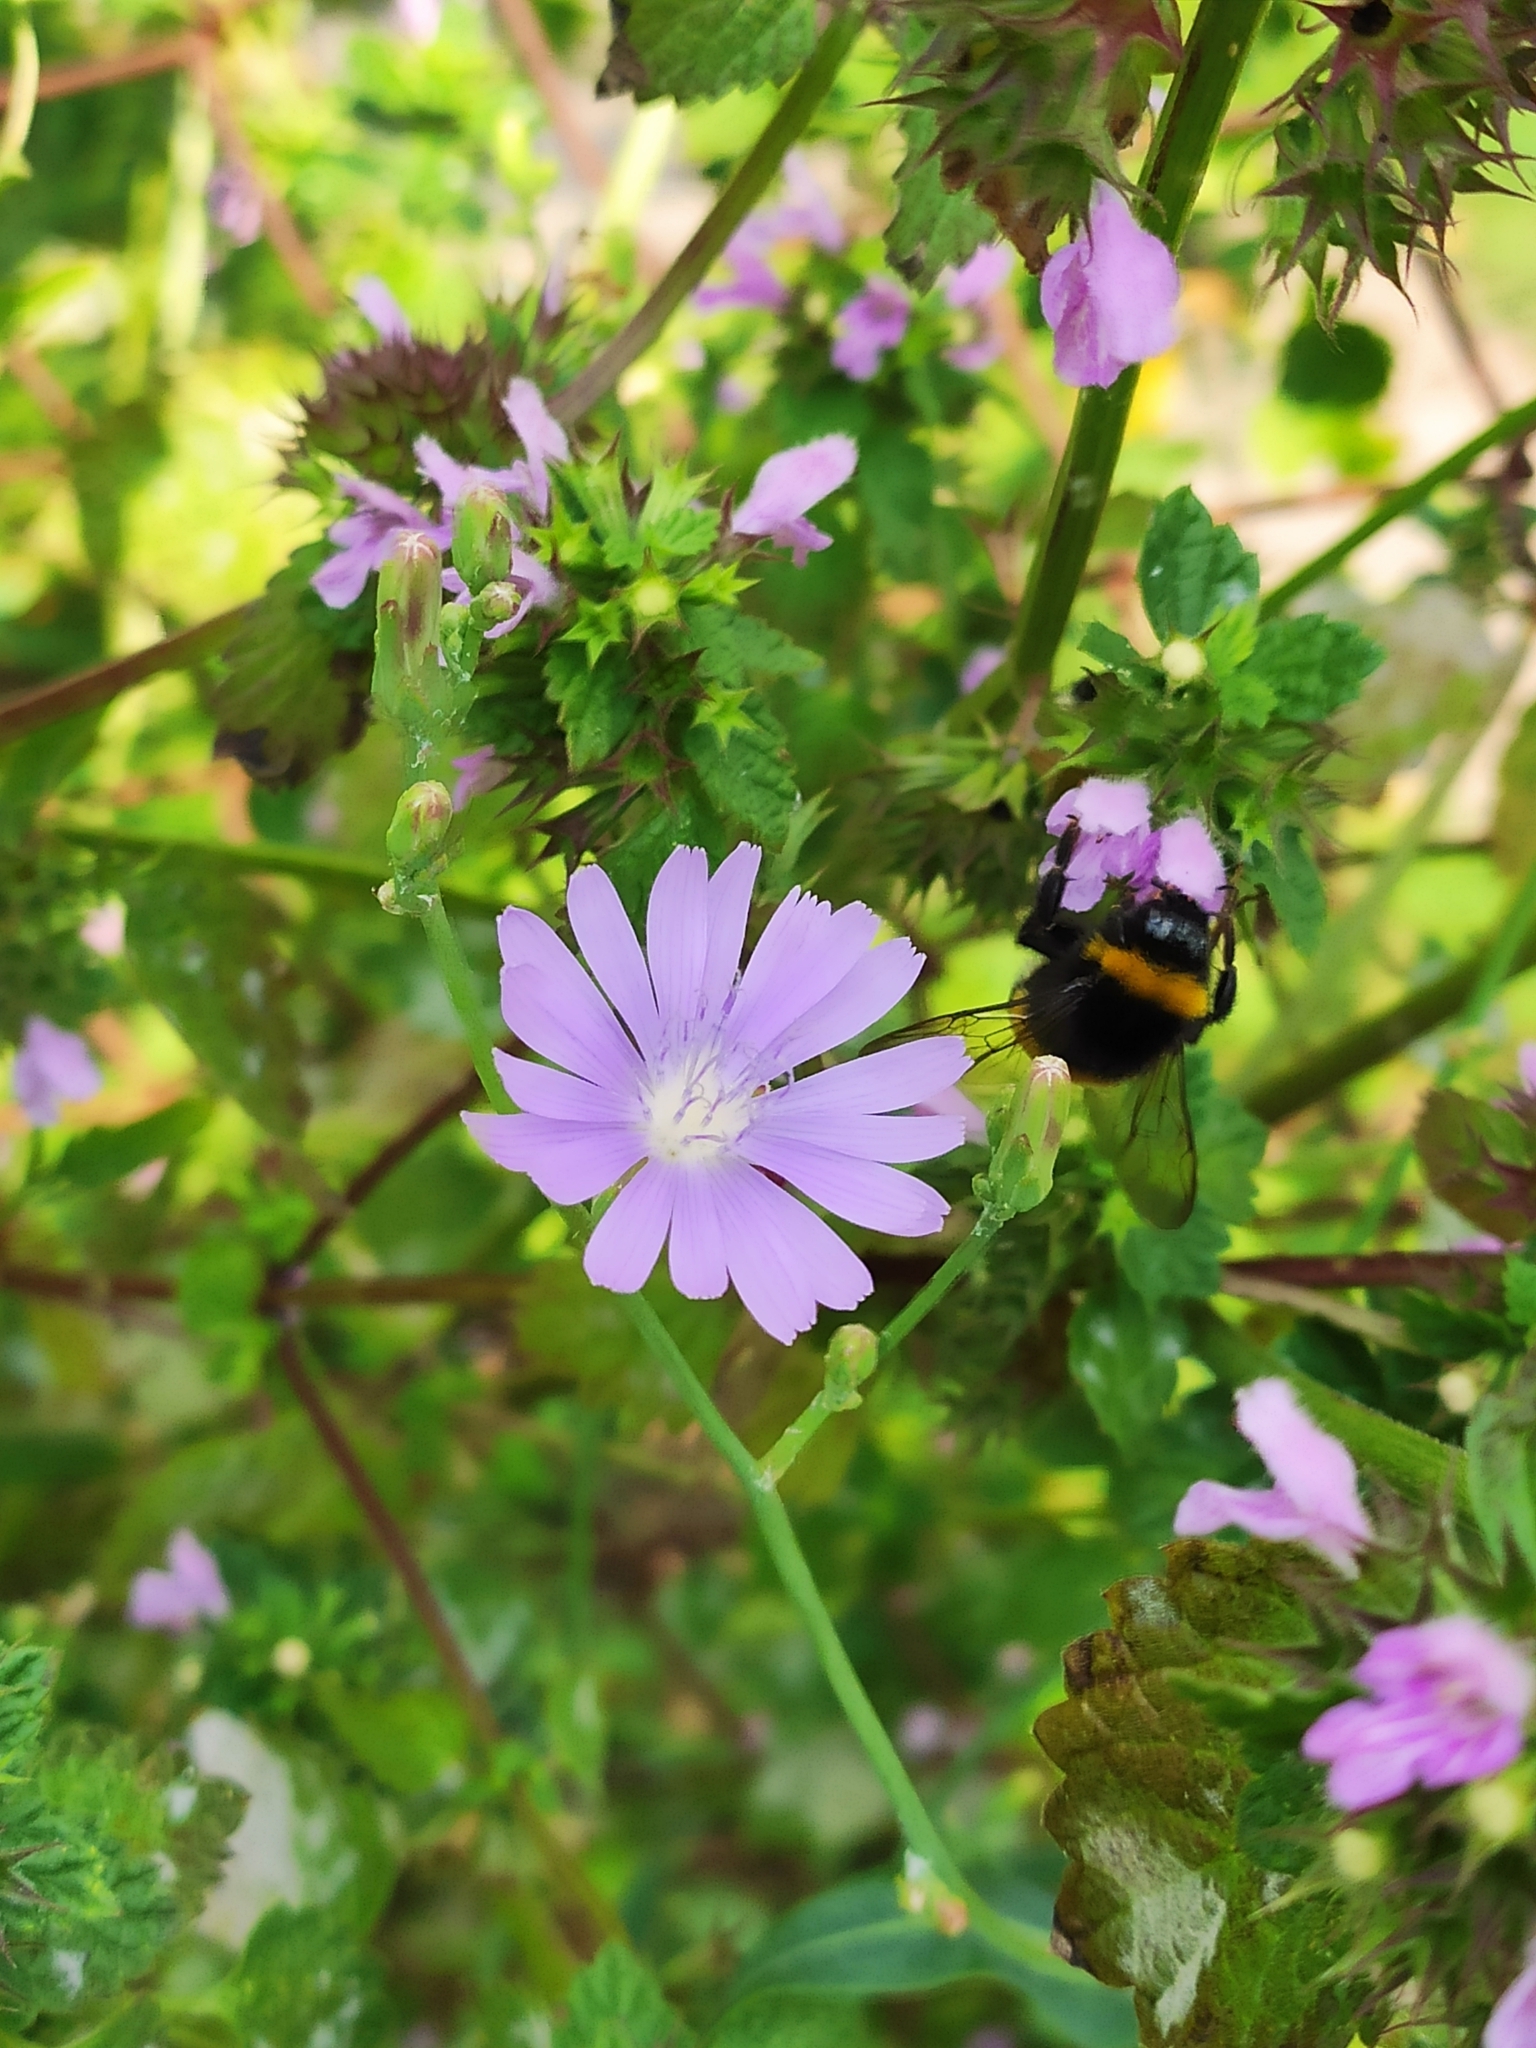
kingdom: Animalia
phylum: Arthropoda
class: Insecta
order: Hymenoptera
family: Apidae
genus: Bombus
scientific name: Bombus
